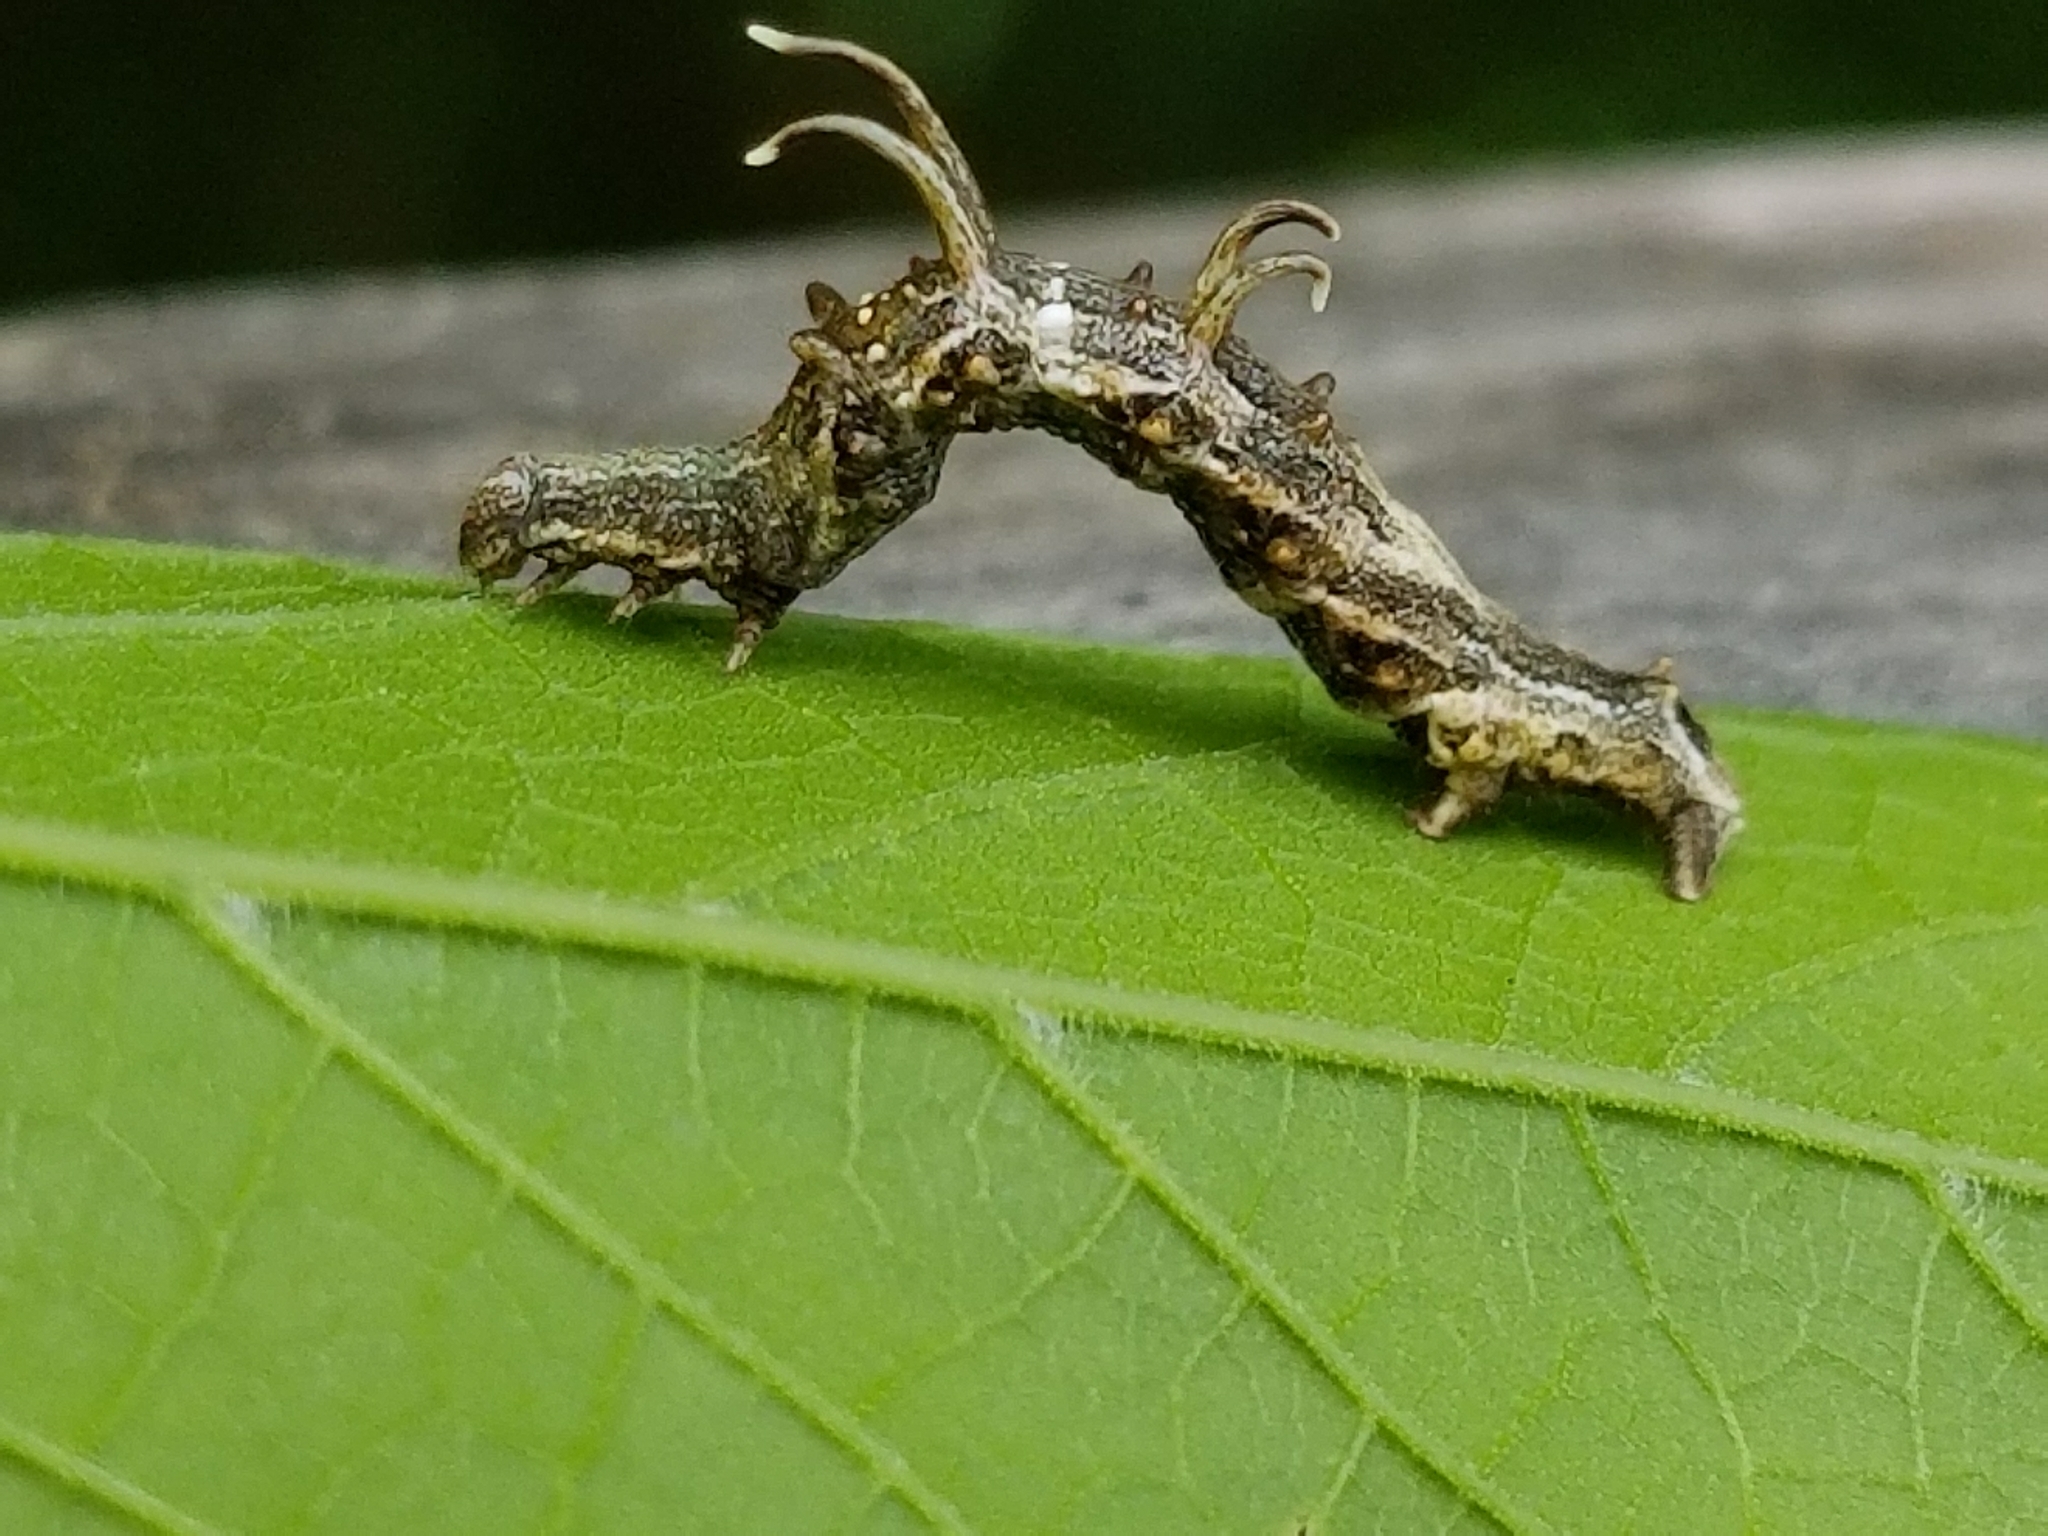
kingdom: Animalia
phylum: Arthropoda
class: Insecta
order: Lepidoptera
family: Geometridae
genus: Nematocampa
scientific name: Nematocampa resistaria
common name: Horned spanworm moth
